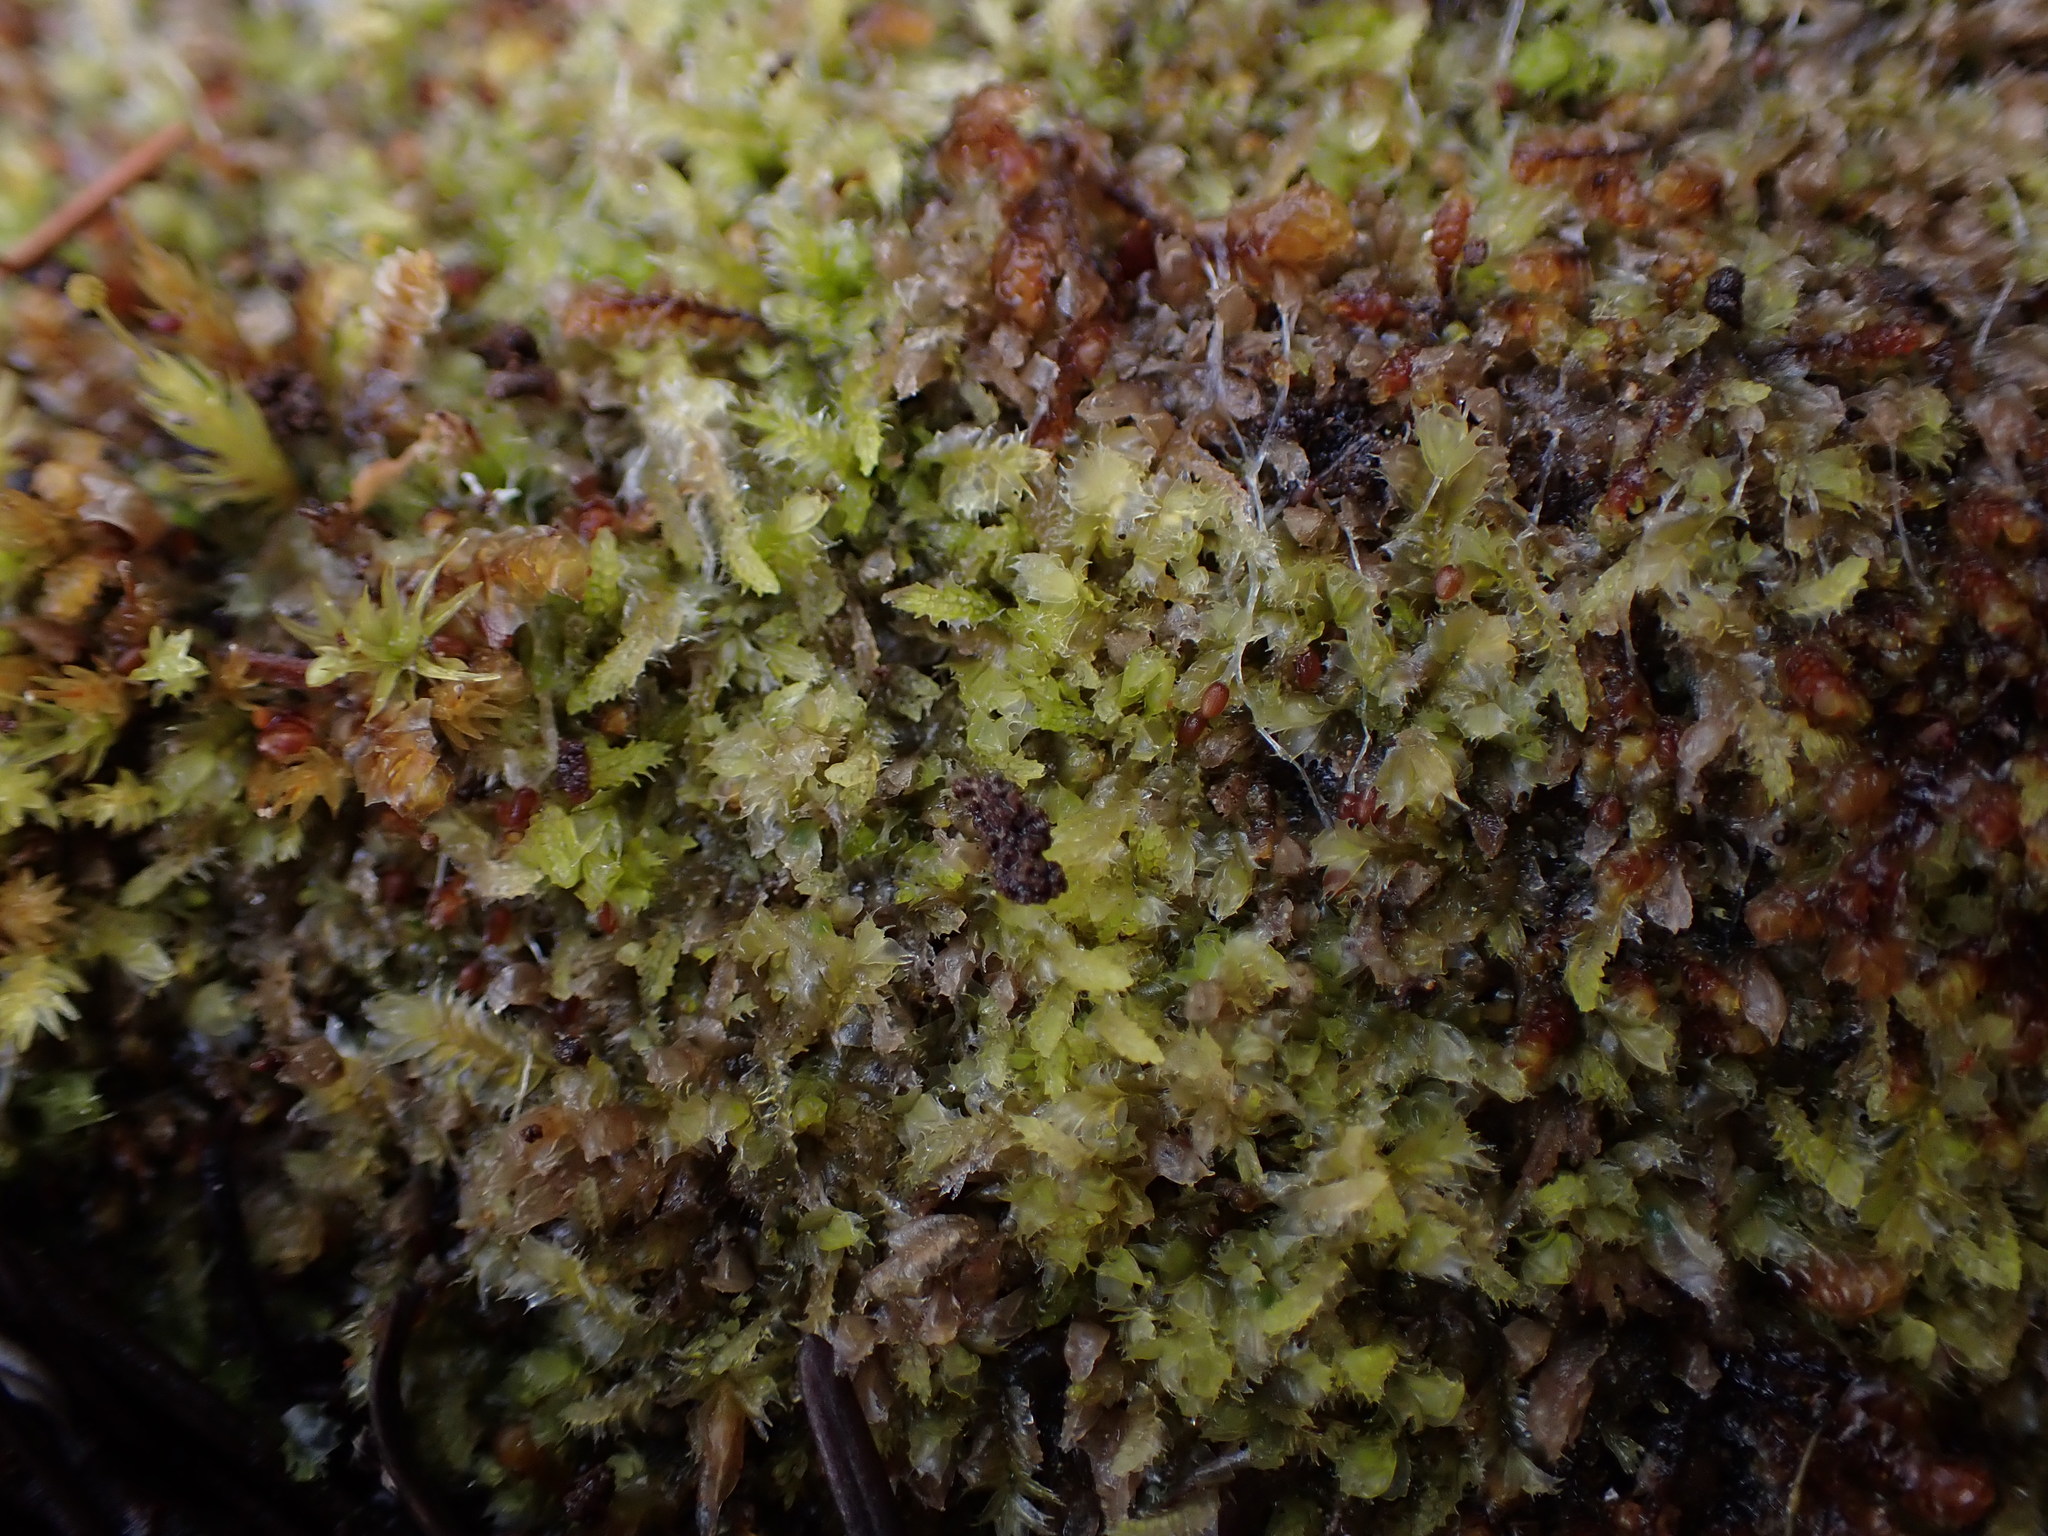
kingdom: Plantae
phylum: Marchantiophyta
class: Jungermanniopsida
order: Jungermanniales
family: Lophocoleaceae
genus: Lophocolea
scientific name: Lophocolea bidentata
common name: Bifid crestwort
